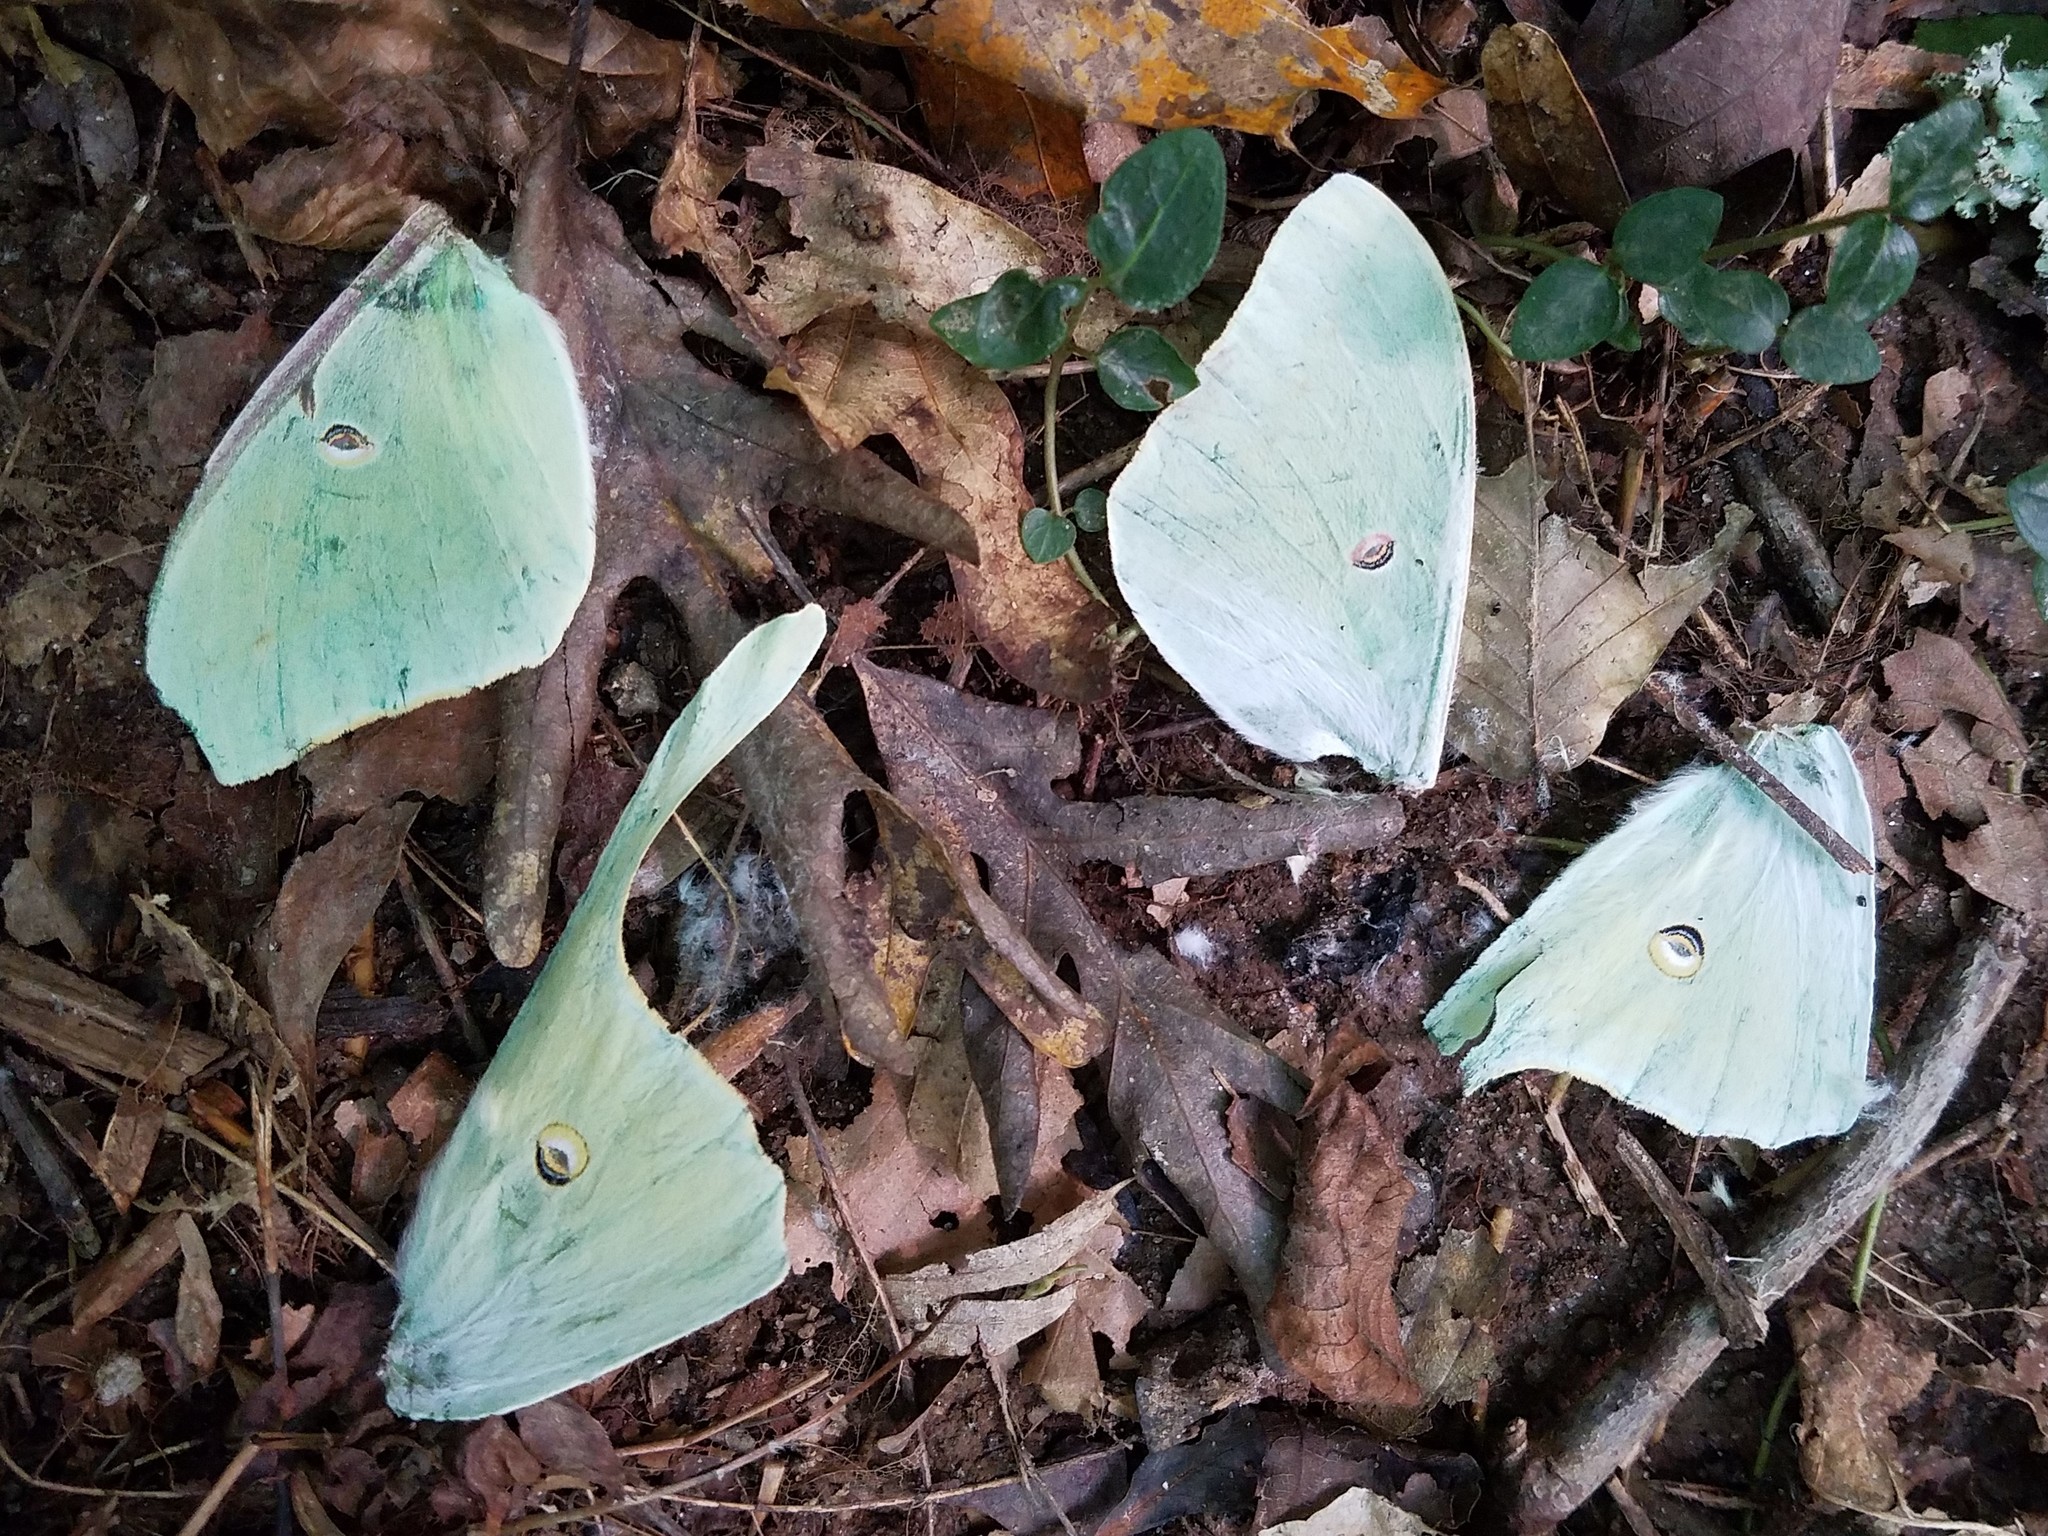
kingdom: Animalia
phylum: Arthropoda
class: Insecta
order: Lepidoptera
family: Saturniidae
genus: Actias
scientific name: Actias luna
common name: Luna moth
